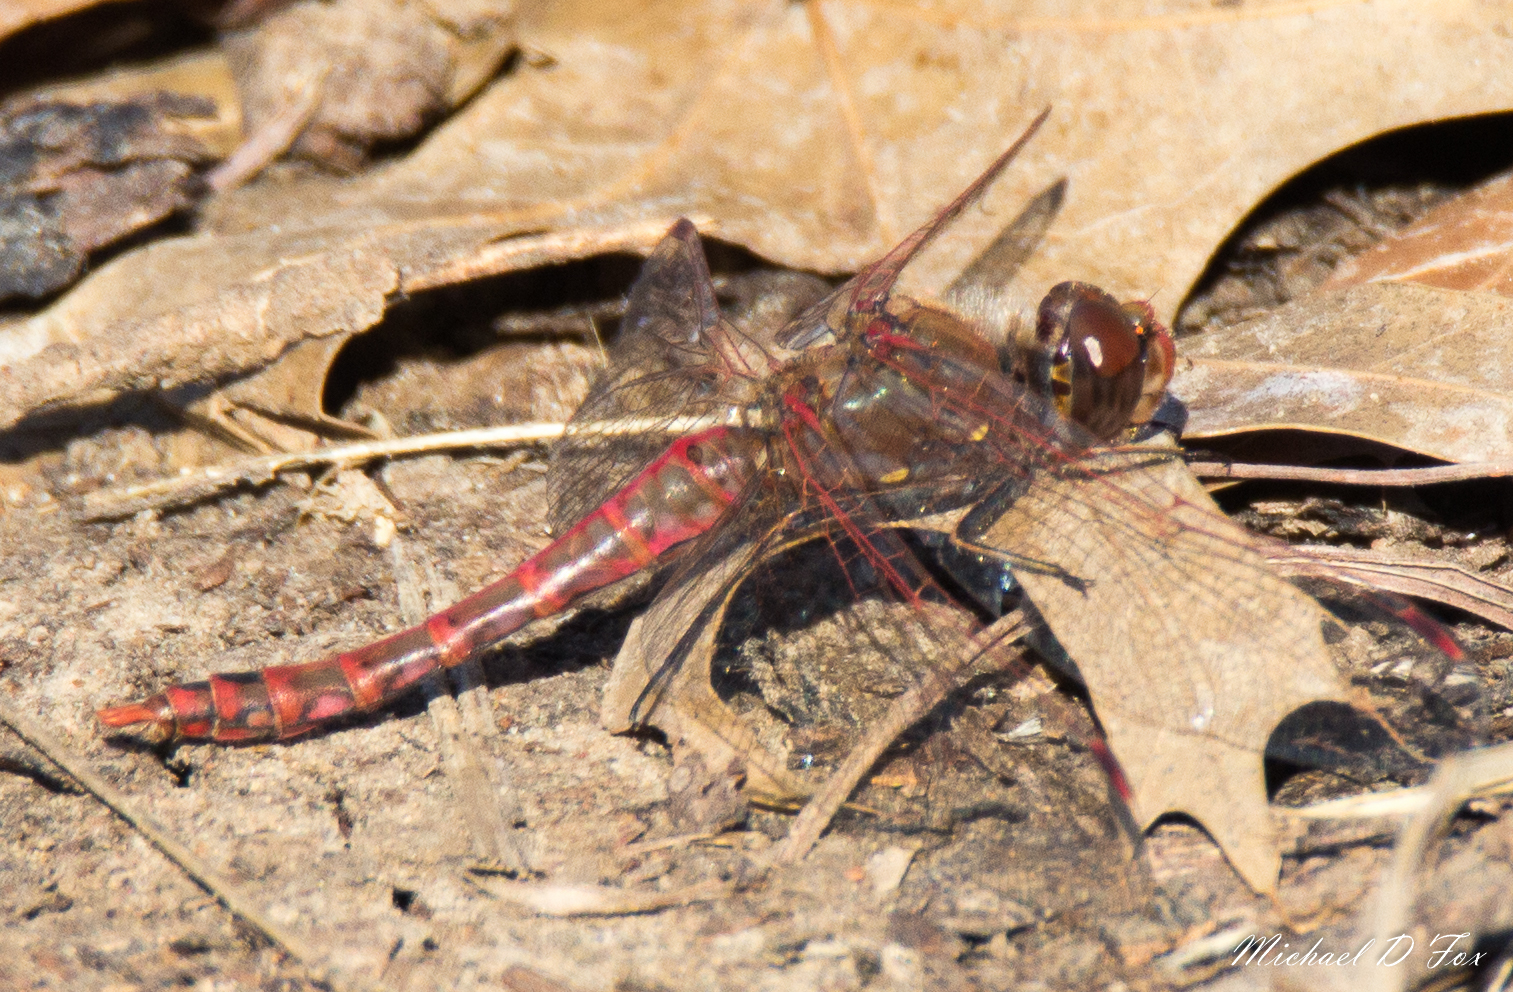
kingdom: Animalia
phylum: Arthropoda
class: Insecta
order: Odonata
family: Libellulidae
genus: Sympetrum
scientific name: Sympetrum corruptum
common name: Variegated meadowhawk
